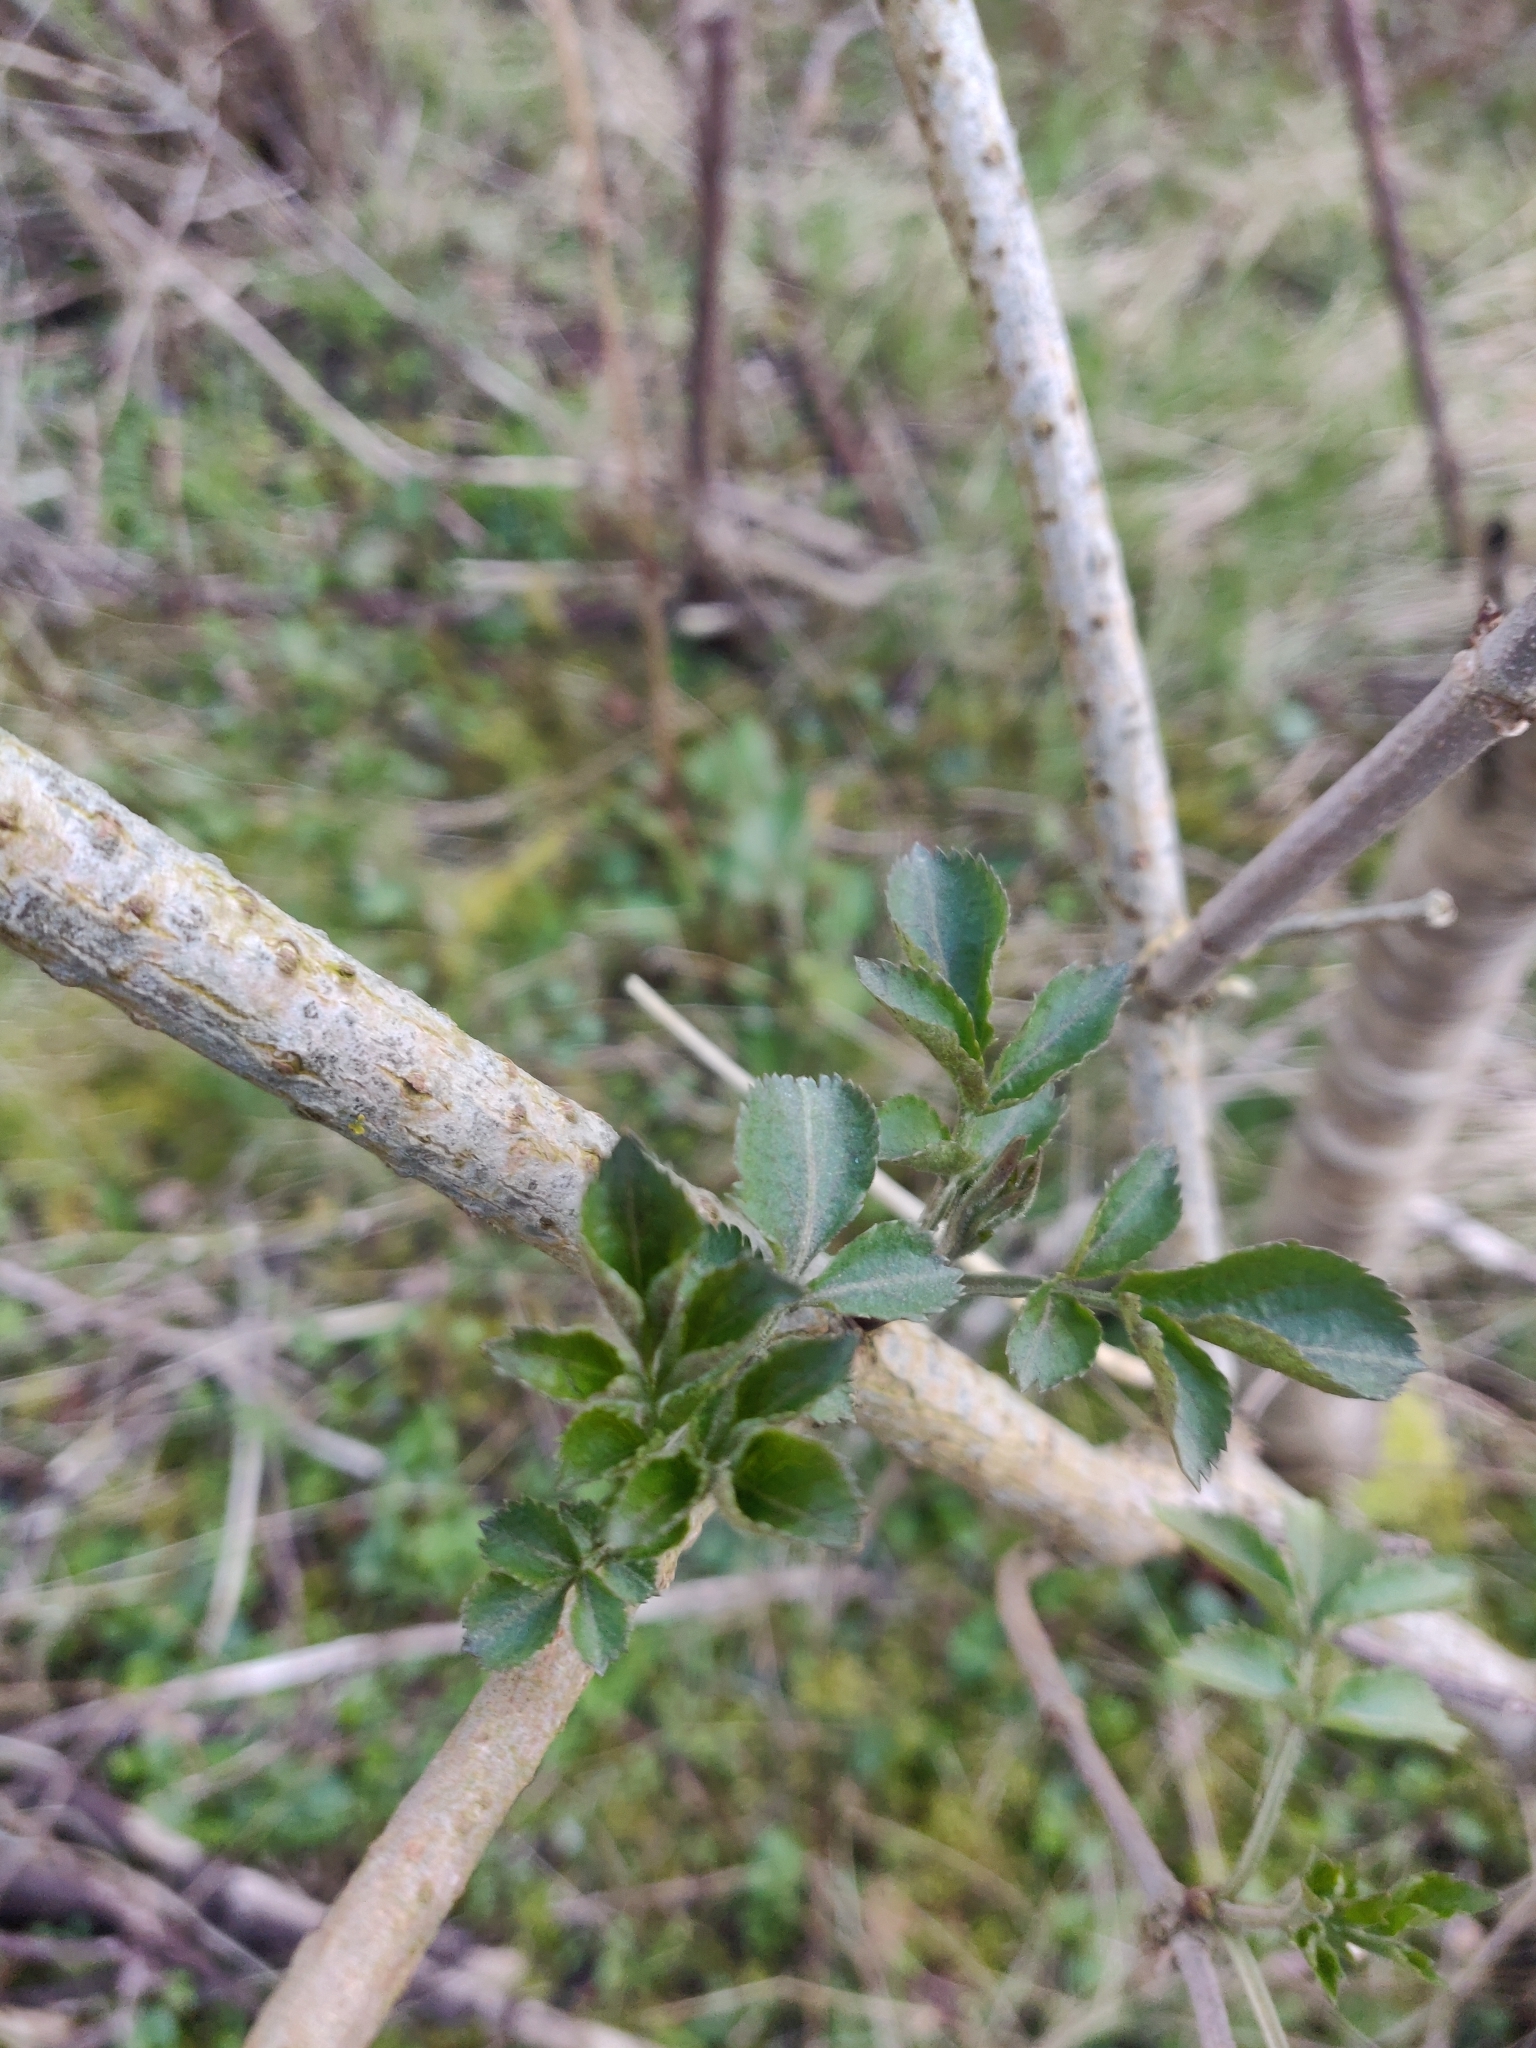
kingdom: Plantae
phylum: Tracheophyta
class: Magnoliopsida
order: Dipsacales
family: Viburnaceae
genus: Sambucus
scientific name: Sambucus nigra
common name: Elder
